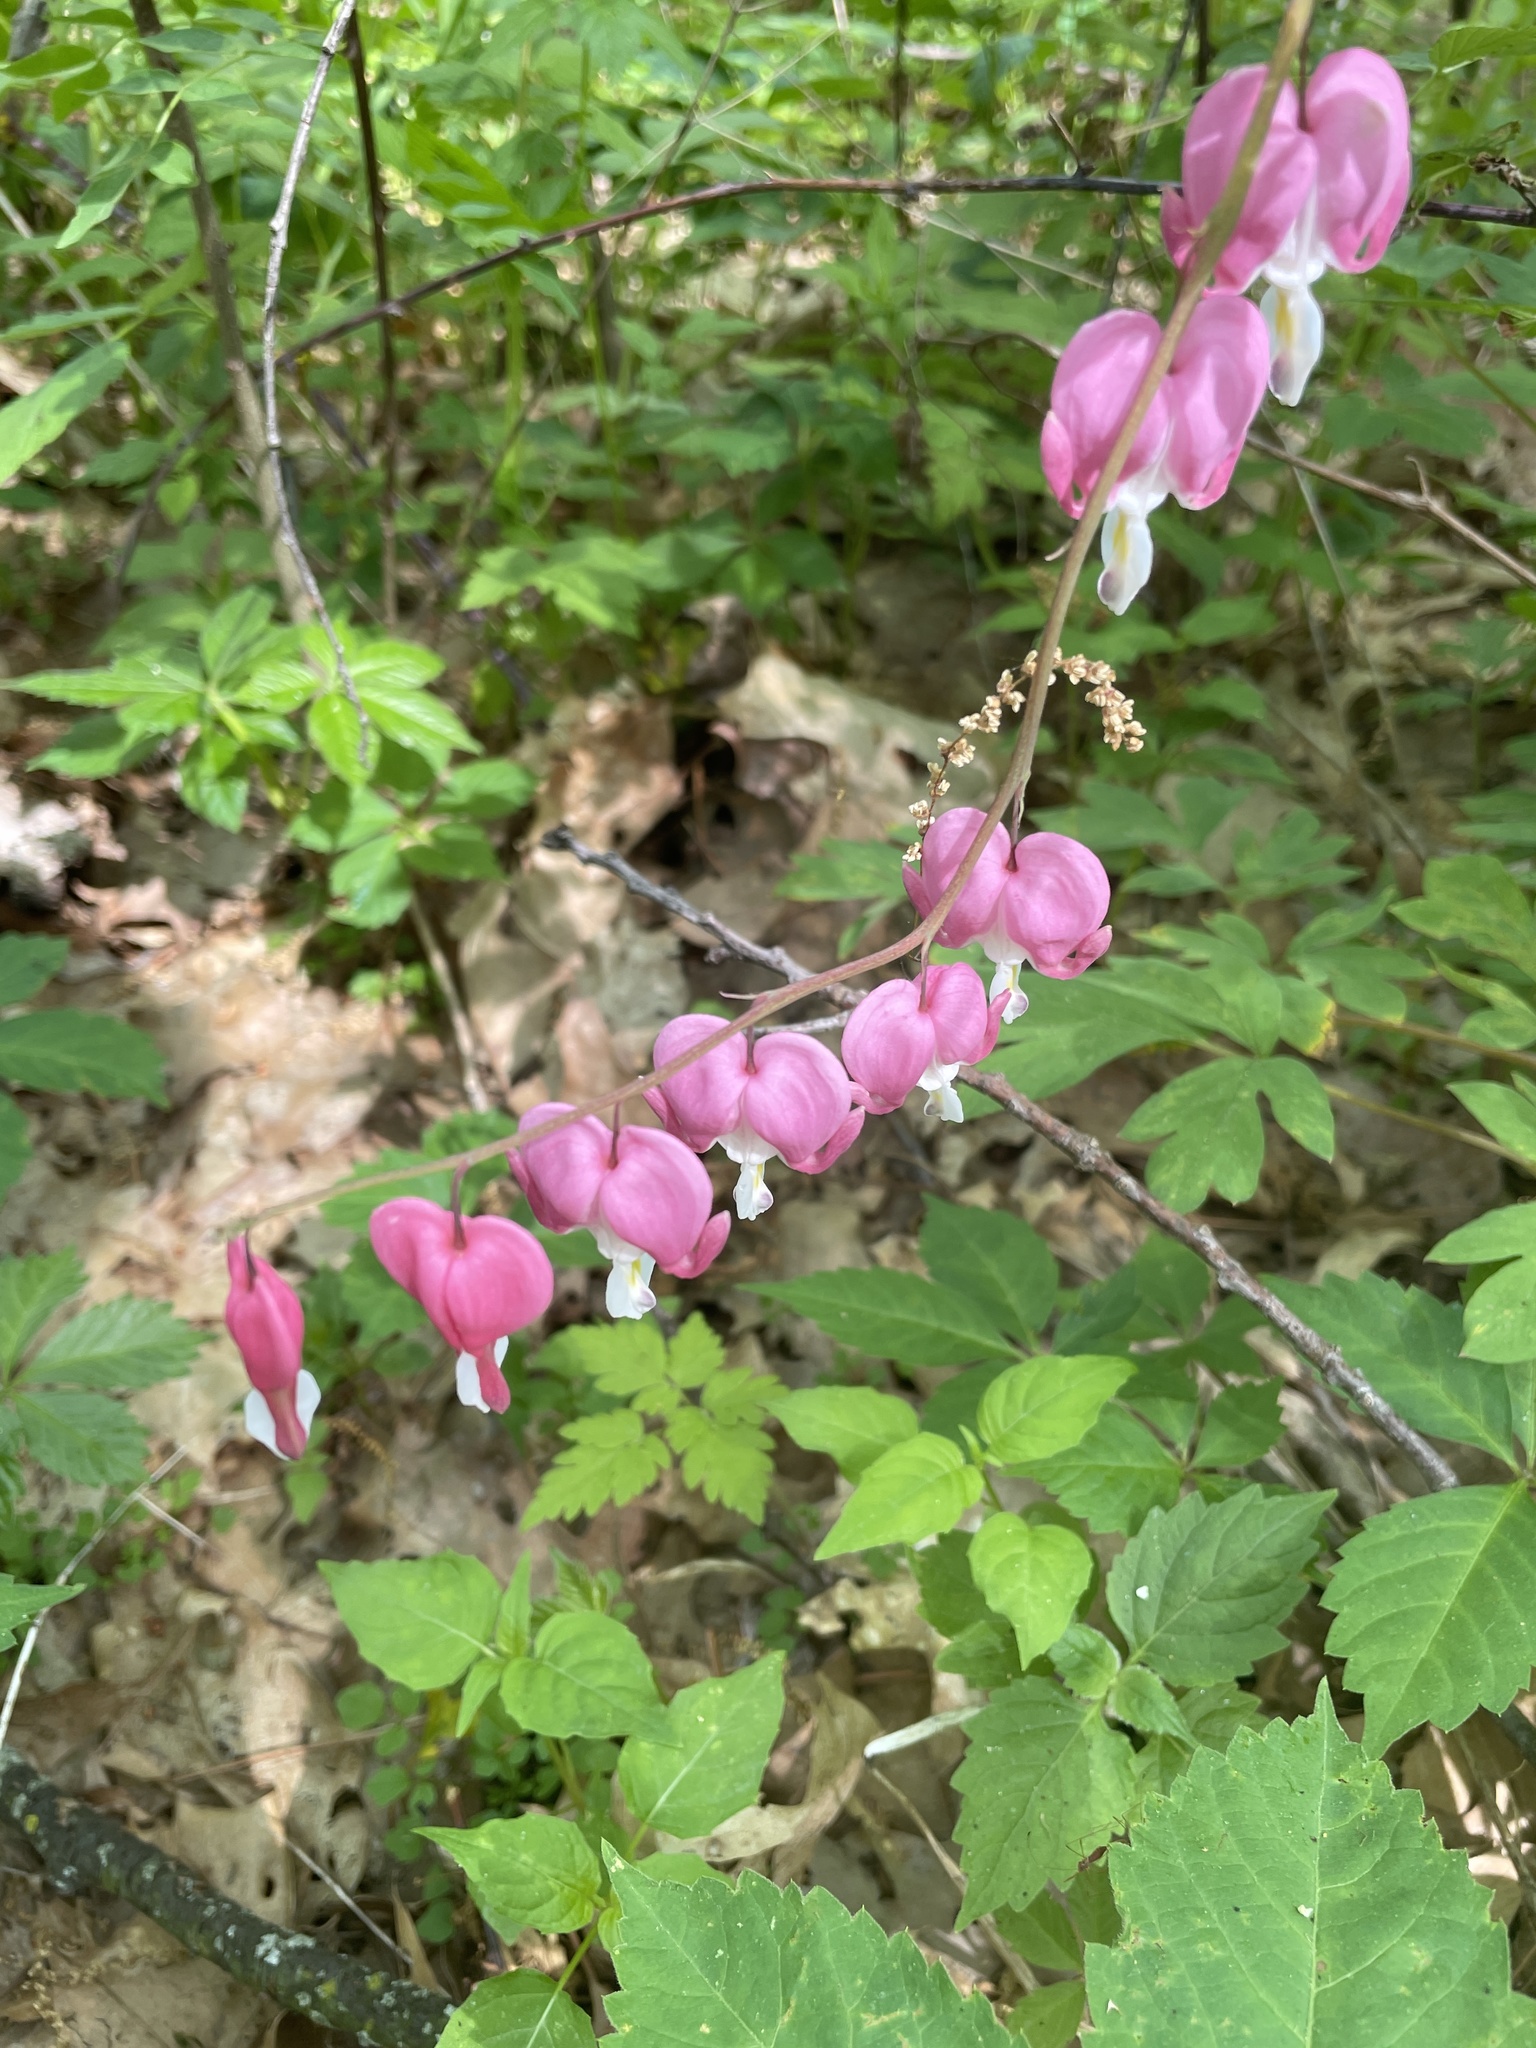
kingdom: Plantae
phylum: Tracheophyta
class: Magnoliopsida
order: Ranunculales
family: Papaveraceae
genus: Lamprocapnos
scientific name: Lamprocapnos spectabilis
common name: Asian bleeding-heart
